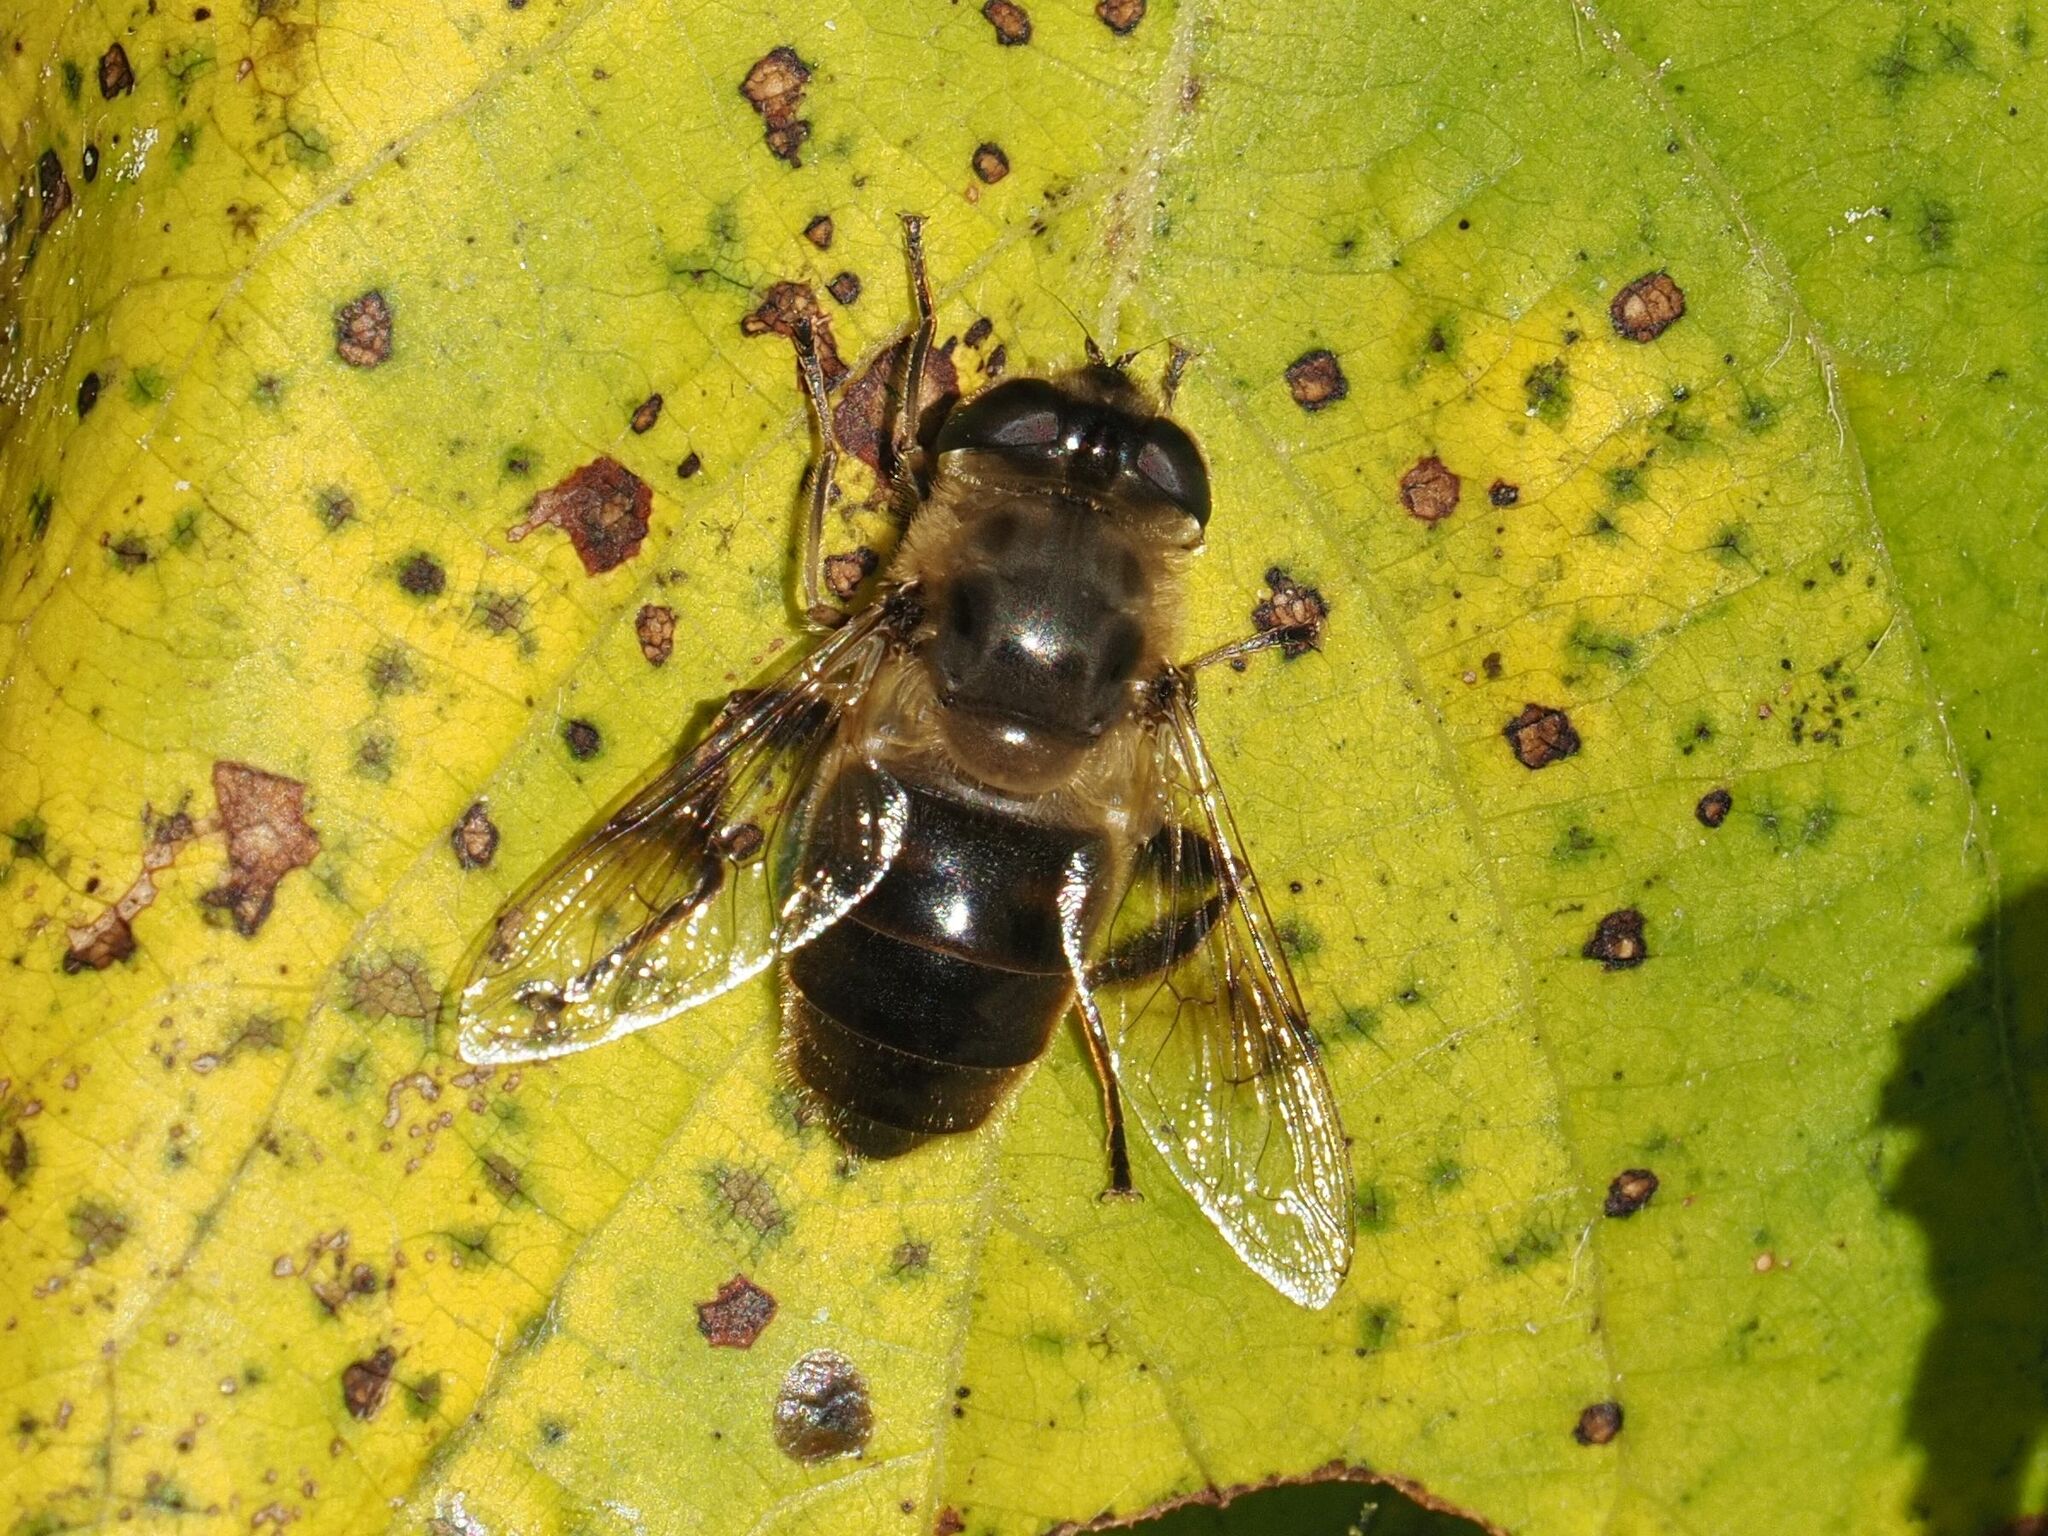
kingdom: Animalia
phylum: Arthropoda
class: Insecta
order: Diptera
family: Syrphidae
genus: Eristalis
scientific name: Eristalis tenax
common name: Drone fly
